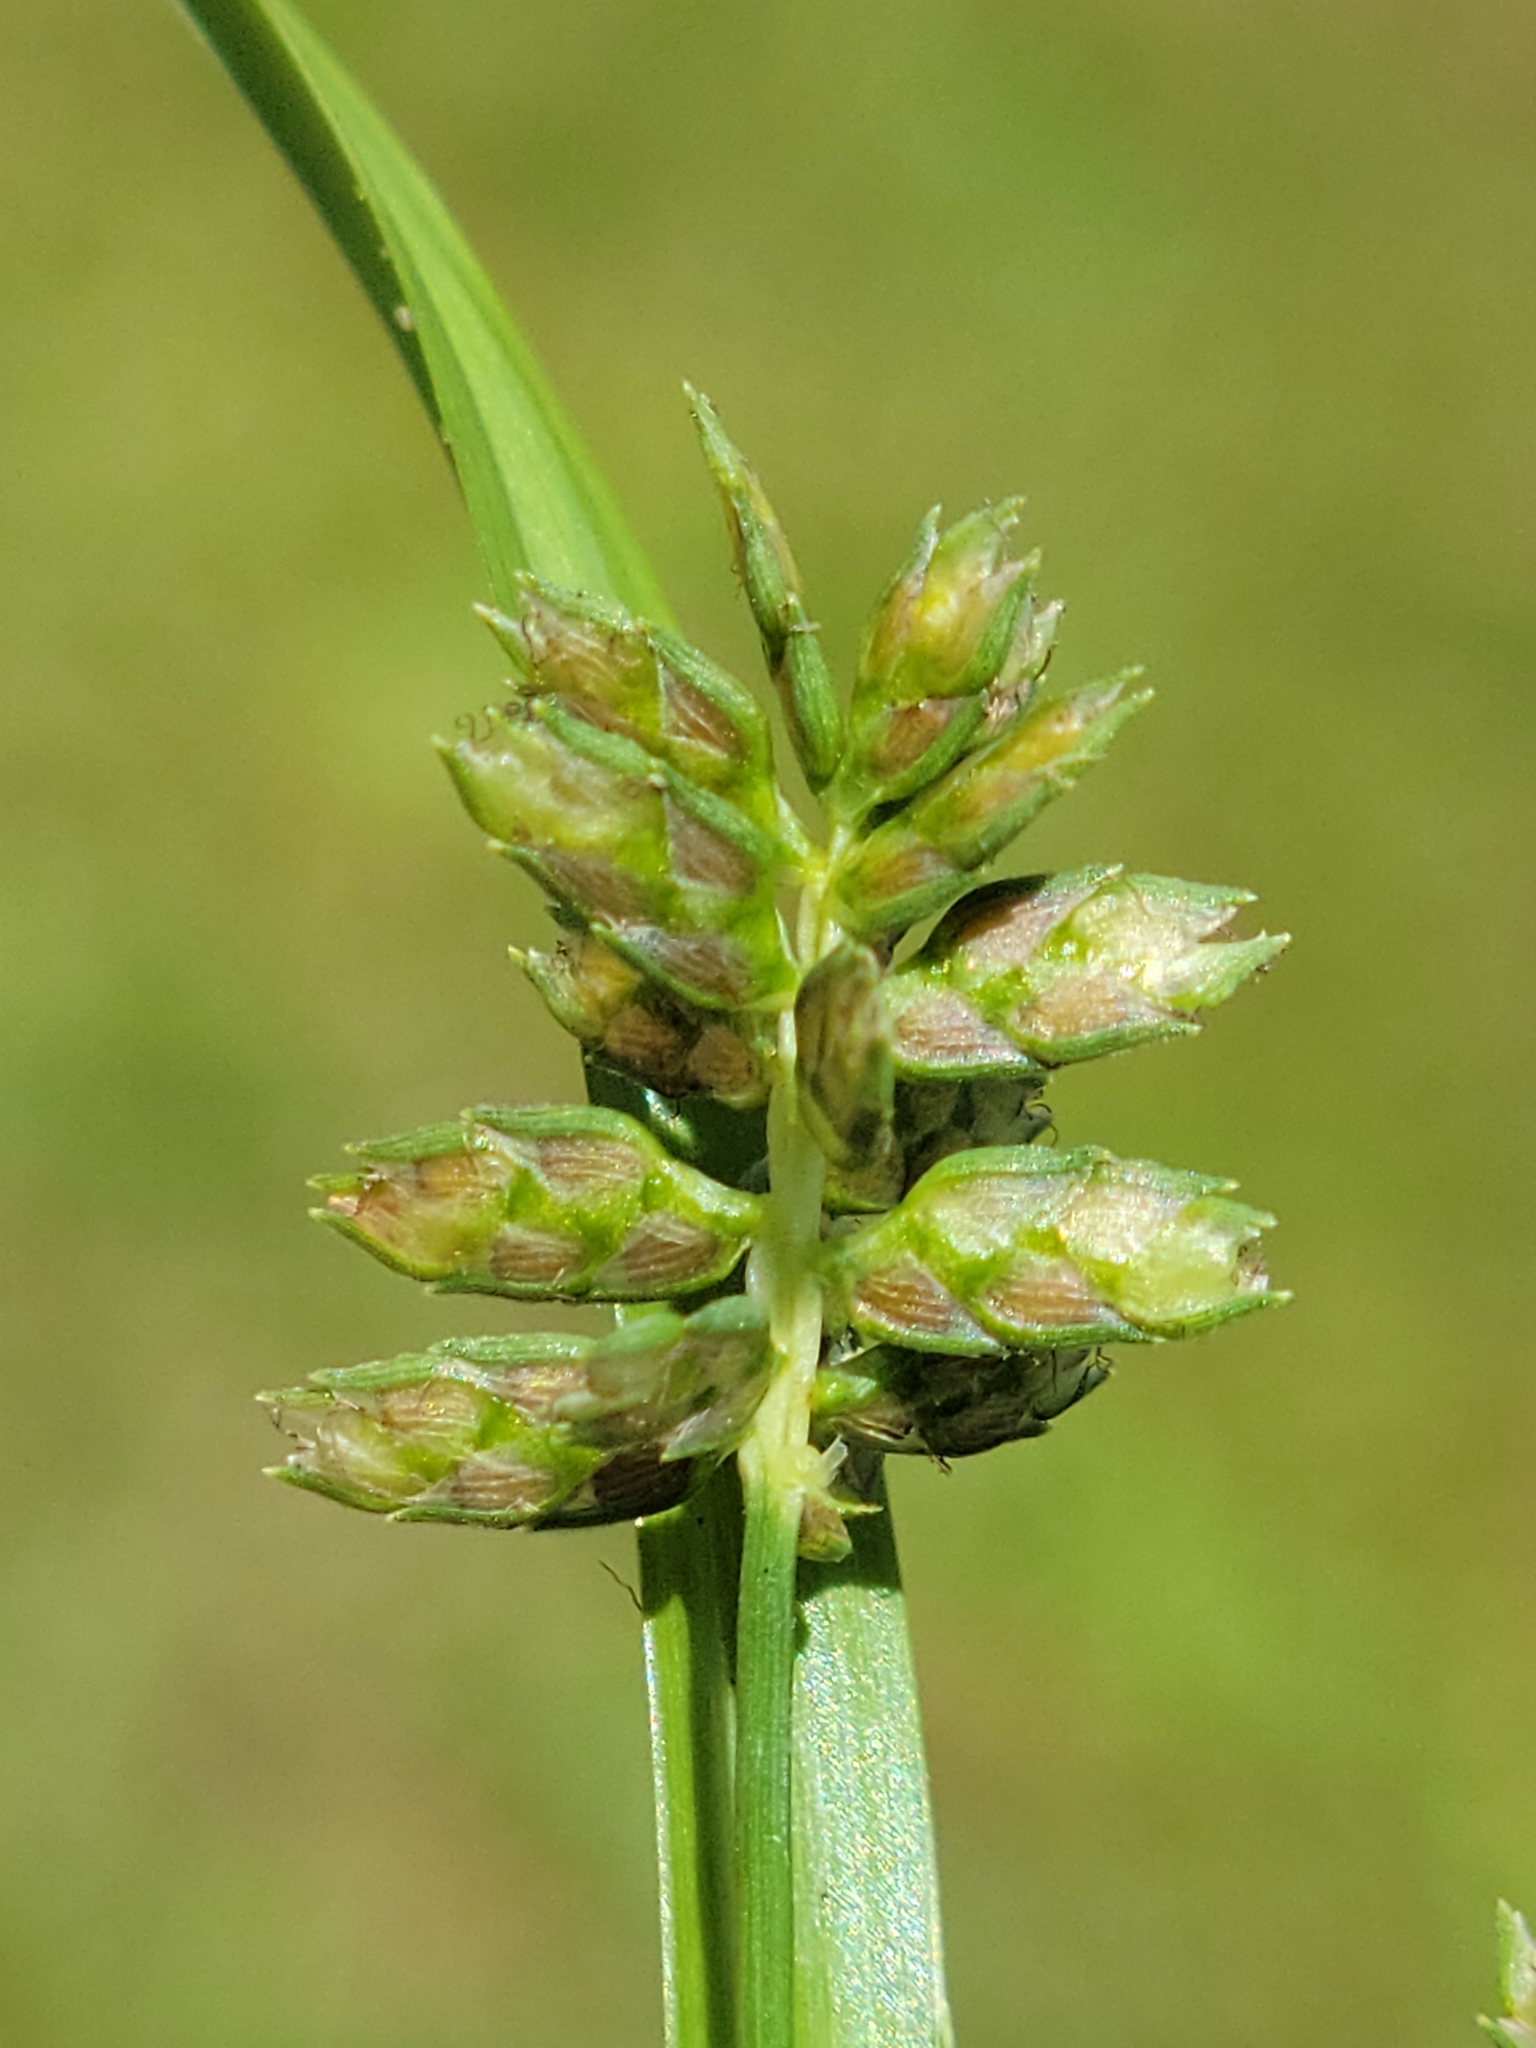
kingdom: Plantae
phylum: Tracheophyta
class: Liliopsida
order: Poales
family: Cyperaceae
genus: Cyperus
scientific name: Cyperus hyalinus
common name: Queensland sedge
